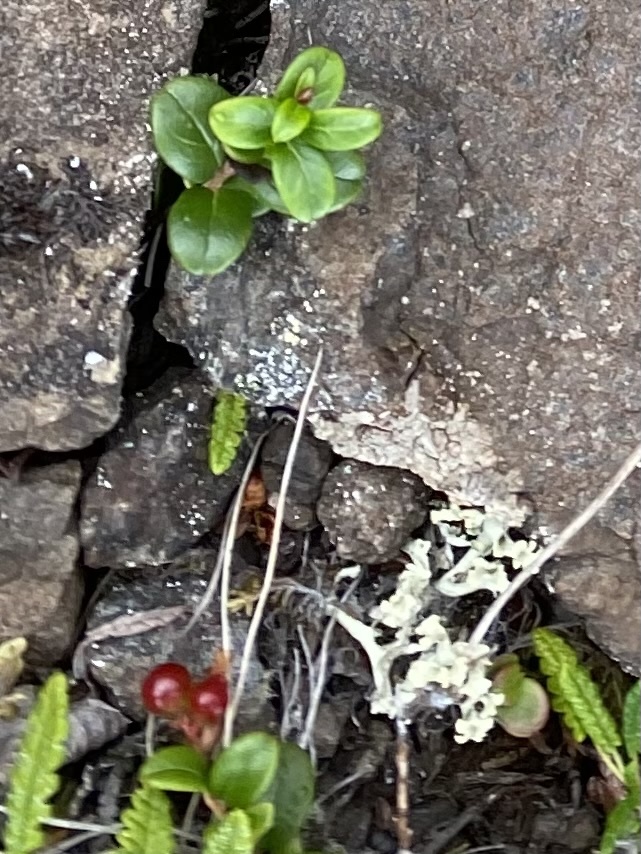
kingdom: Plantae
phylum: Tracheophyta
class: Magnoliopsida
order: Ericales
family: Ericaceae
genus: Vaccinium
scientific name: Vaccinium vitis-idaea
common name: Cowberry
